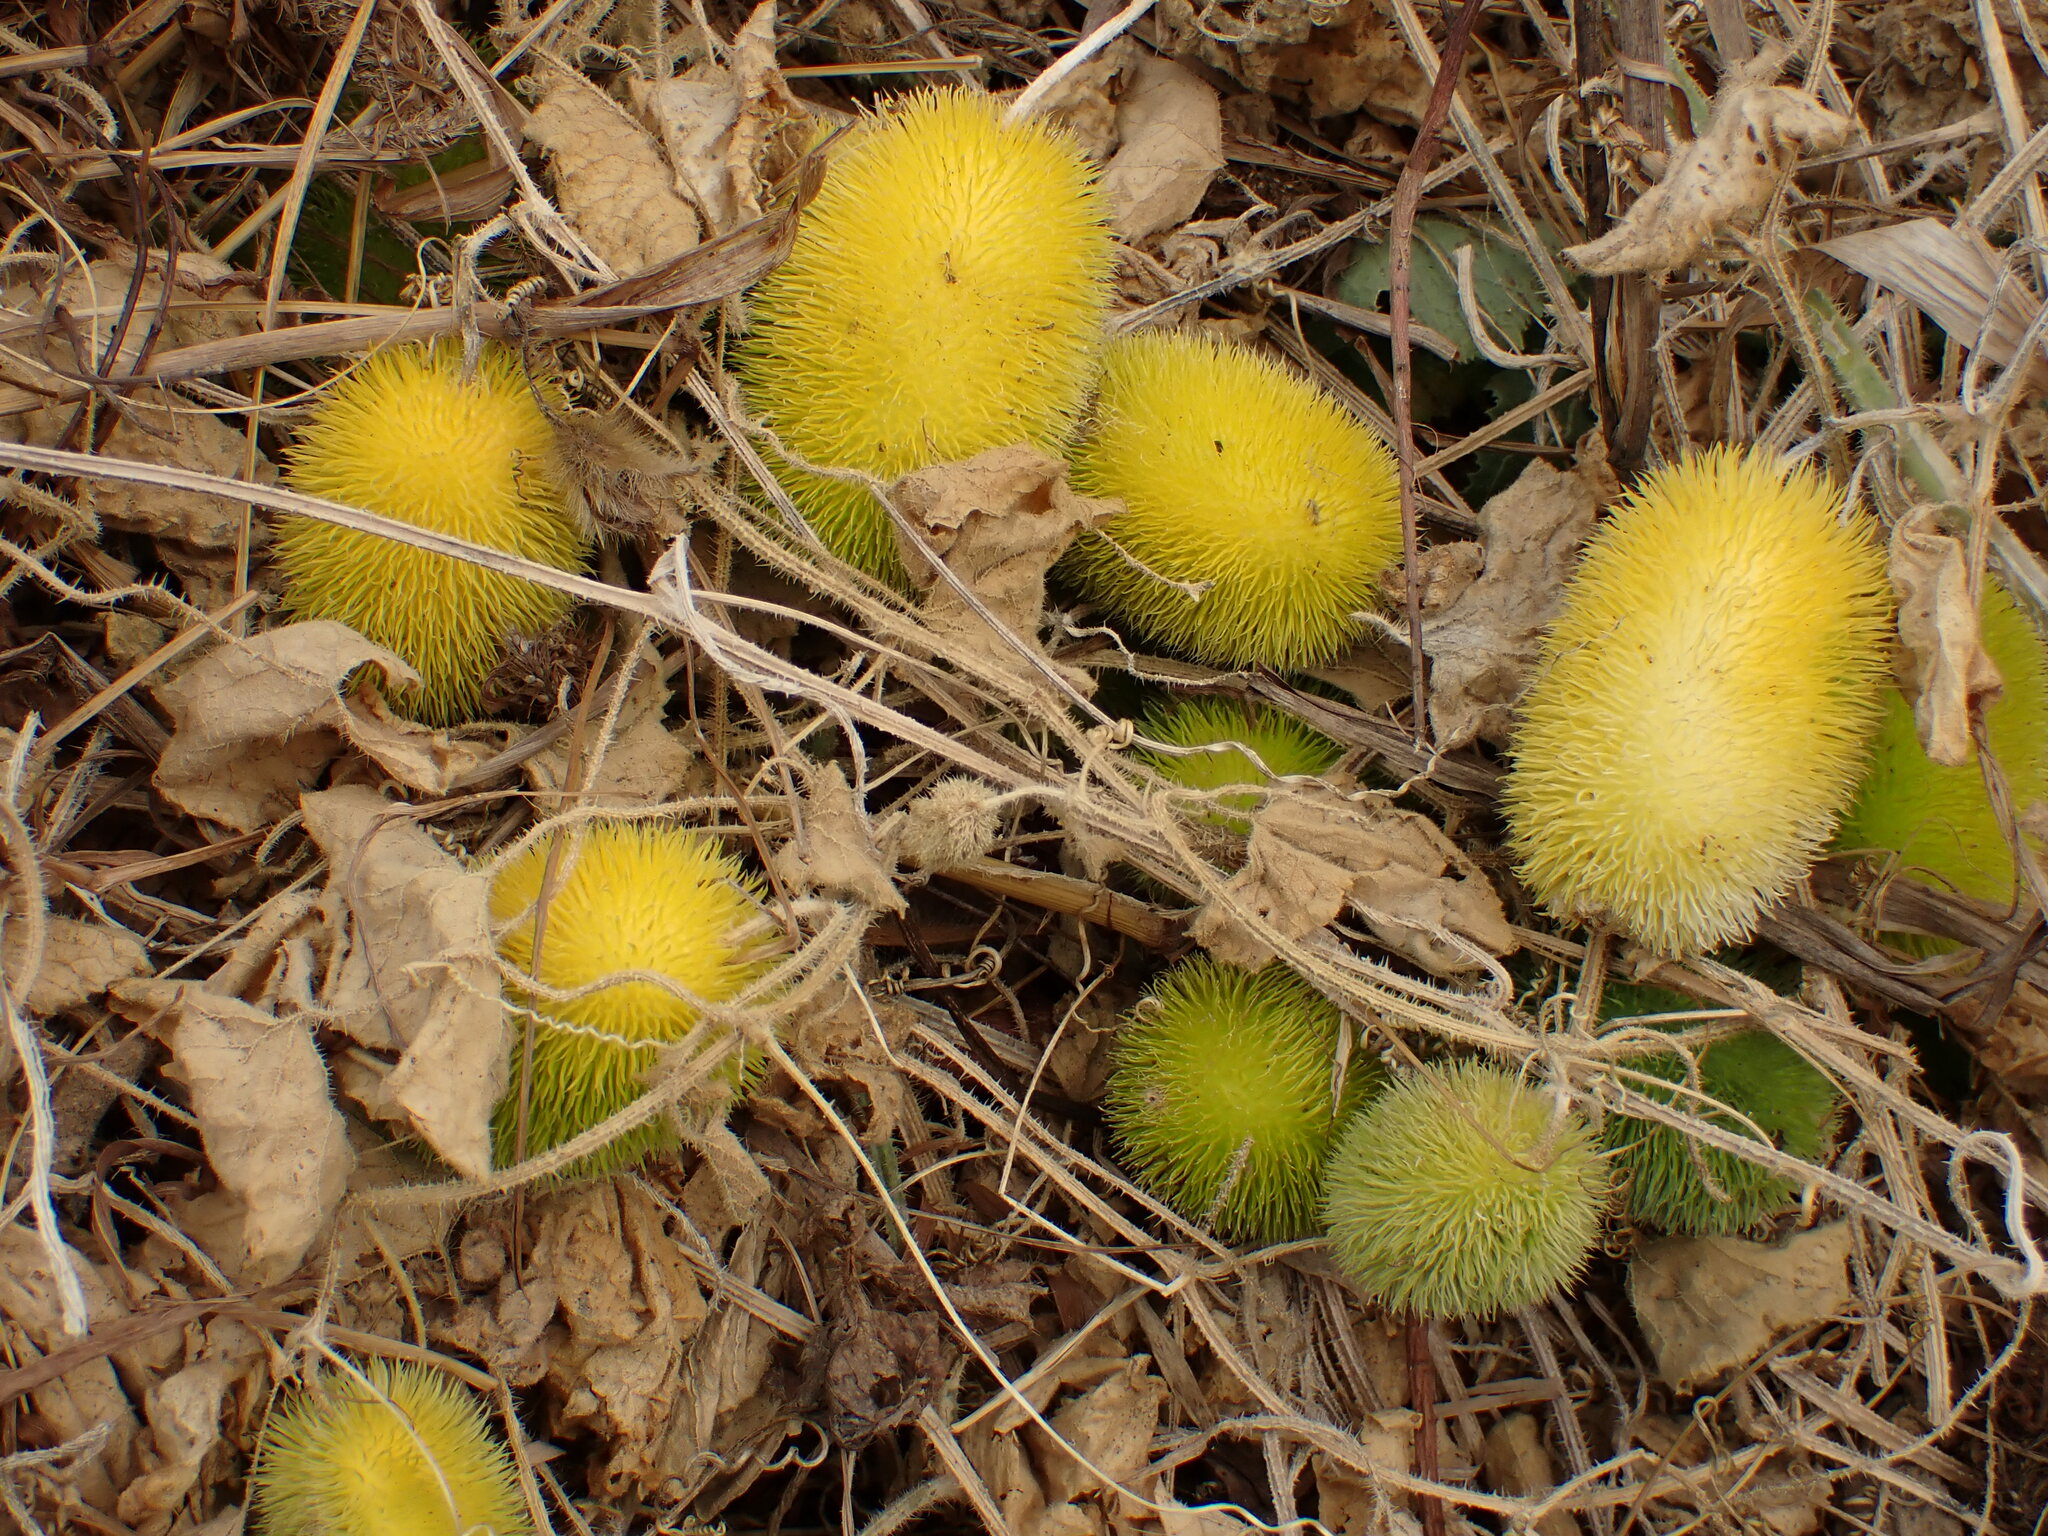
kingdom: Plantae
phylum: Tracheophyta
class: Magnoliopsida
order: Cucurbitales
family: Cucurbitaceae
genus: Cucumis
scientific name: Cucumis dipsaceus
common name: Hedgehog gourd
